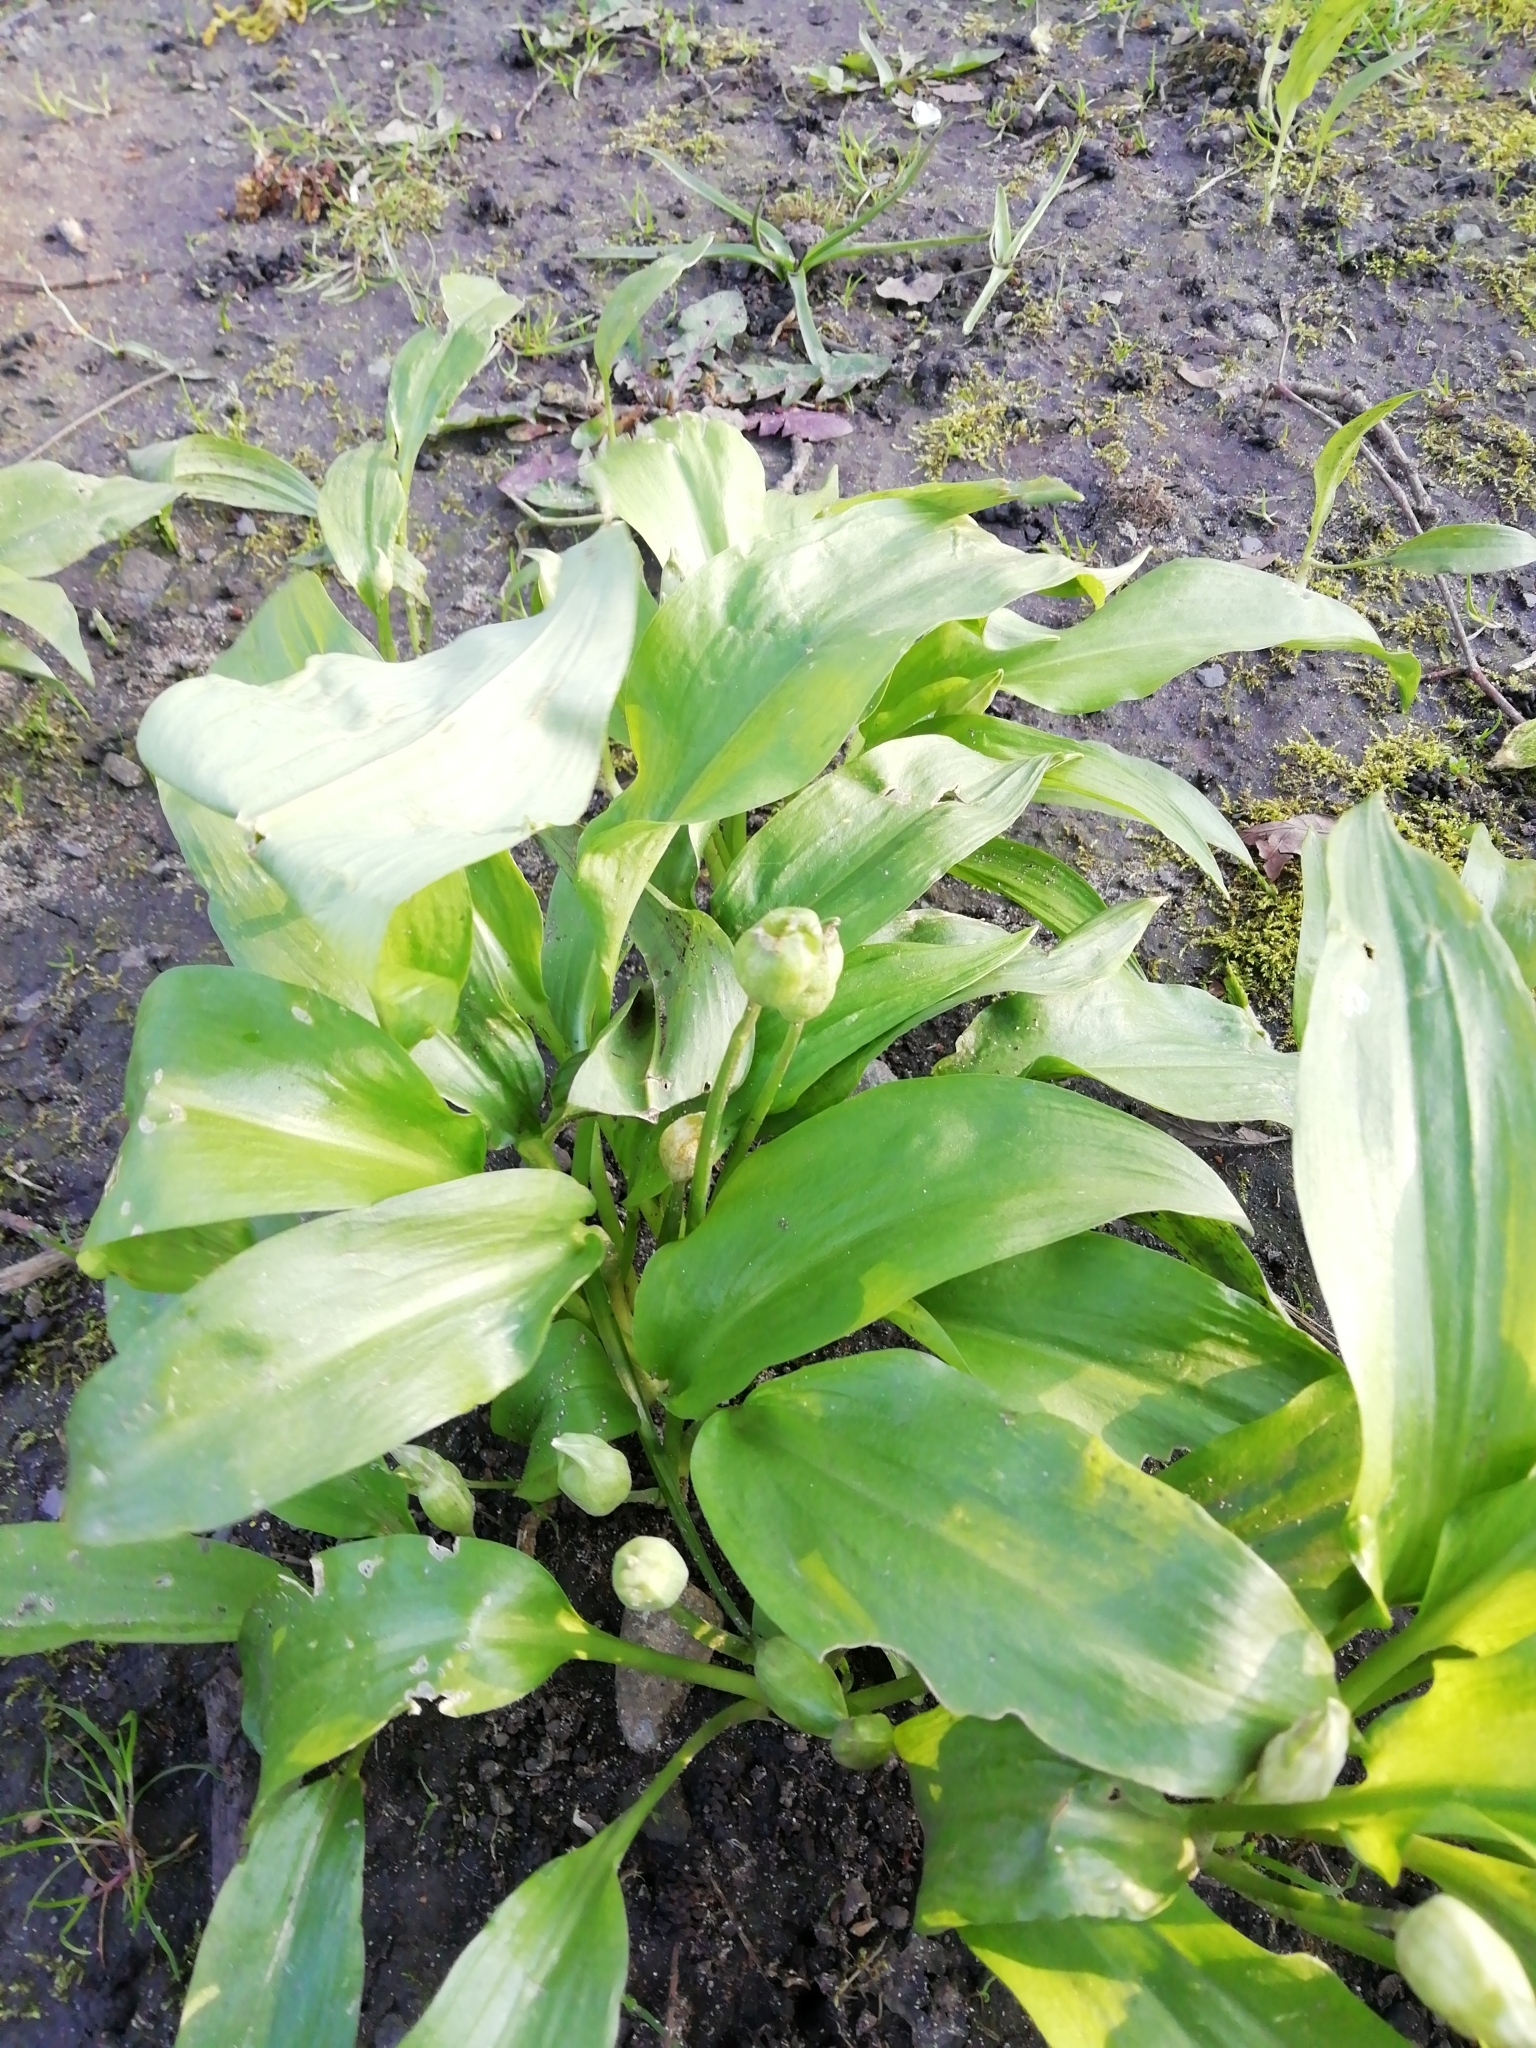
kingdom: Plantae
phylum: Tracheophyta
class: Liliopsida
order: Asparagales
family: Amaryllidaceae
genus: Allium
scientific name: Allium ursinum
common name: Ramsons
